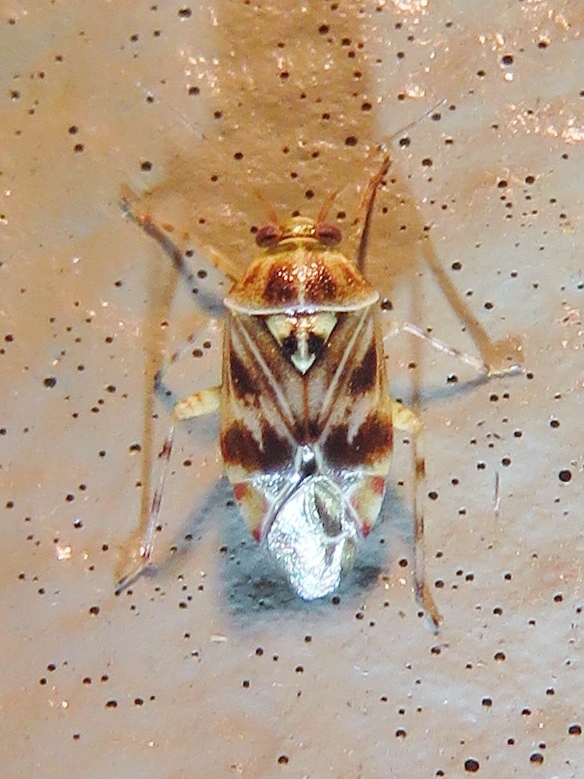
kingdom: Animalia
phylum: Arthropoda
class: Insecta
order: Hemiptera
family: Miridae
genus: Tropidosteptes
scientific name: Tropidosteptes quercicola
